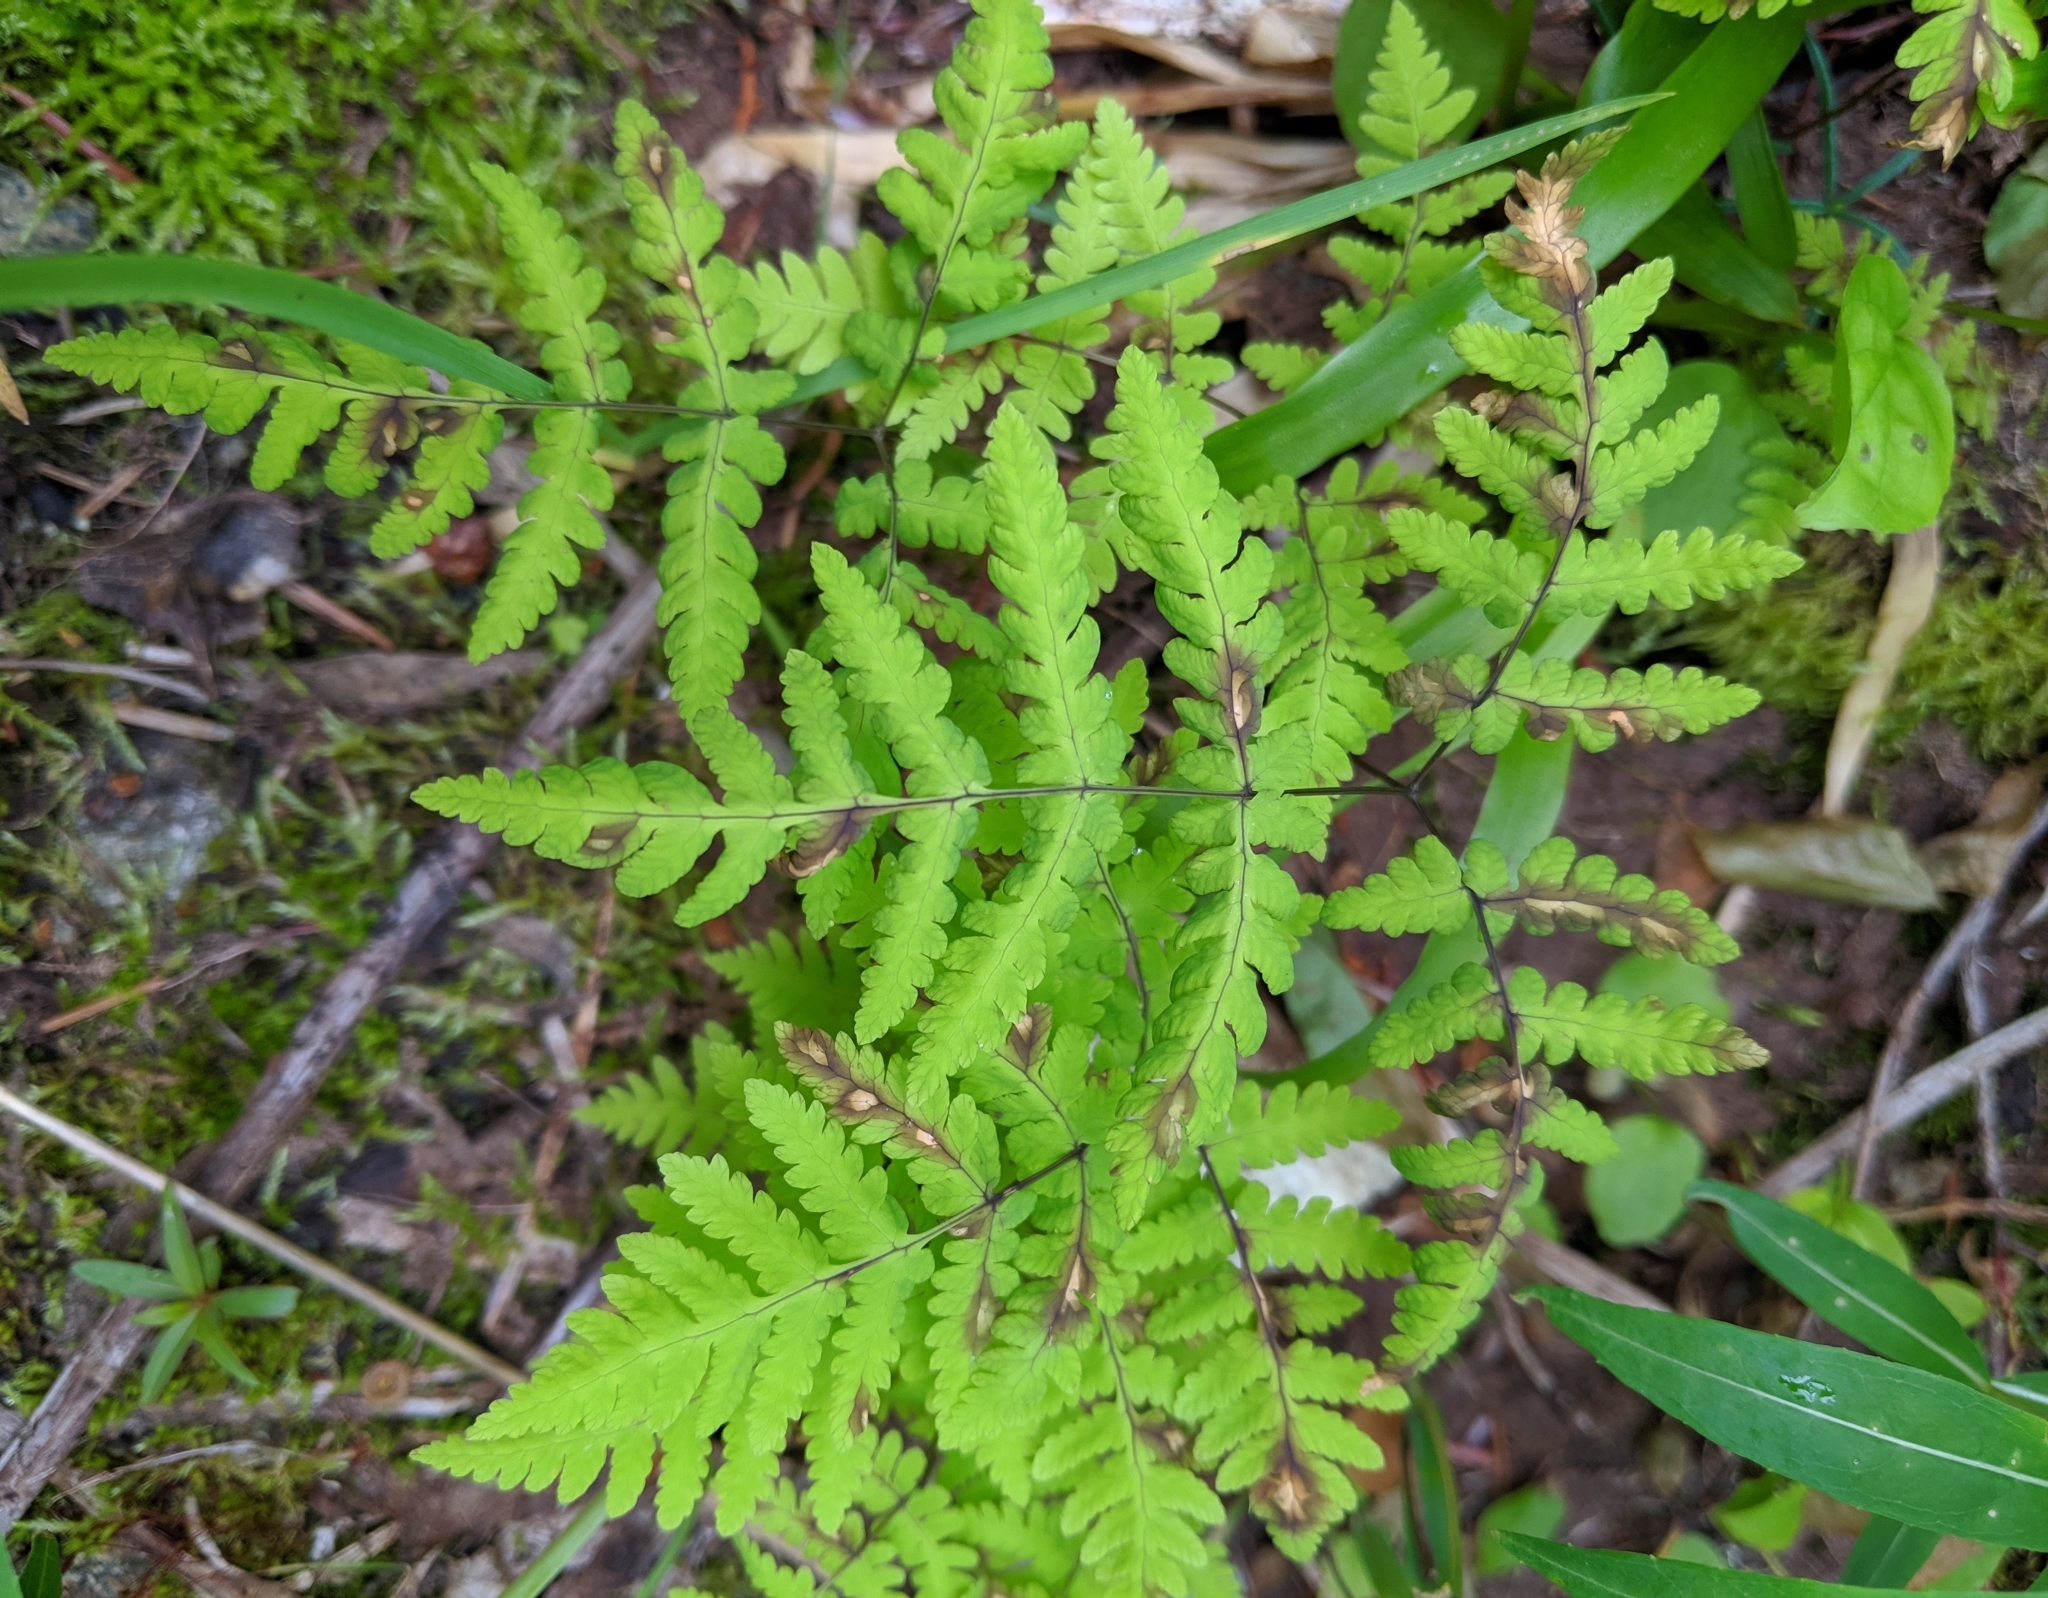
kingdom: Plantae
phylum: Tracheophyta
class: Polypodiopsida
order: Polypodiales
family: Cystopteridaceae
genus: Gymnocarpium
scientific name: Gymnocarpium dryopteris
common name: Oak fern
